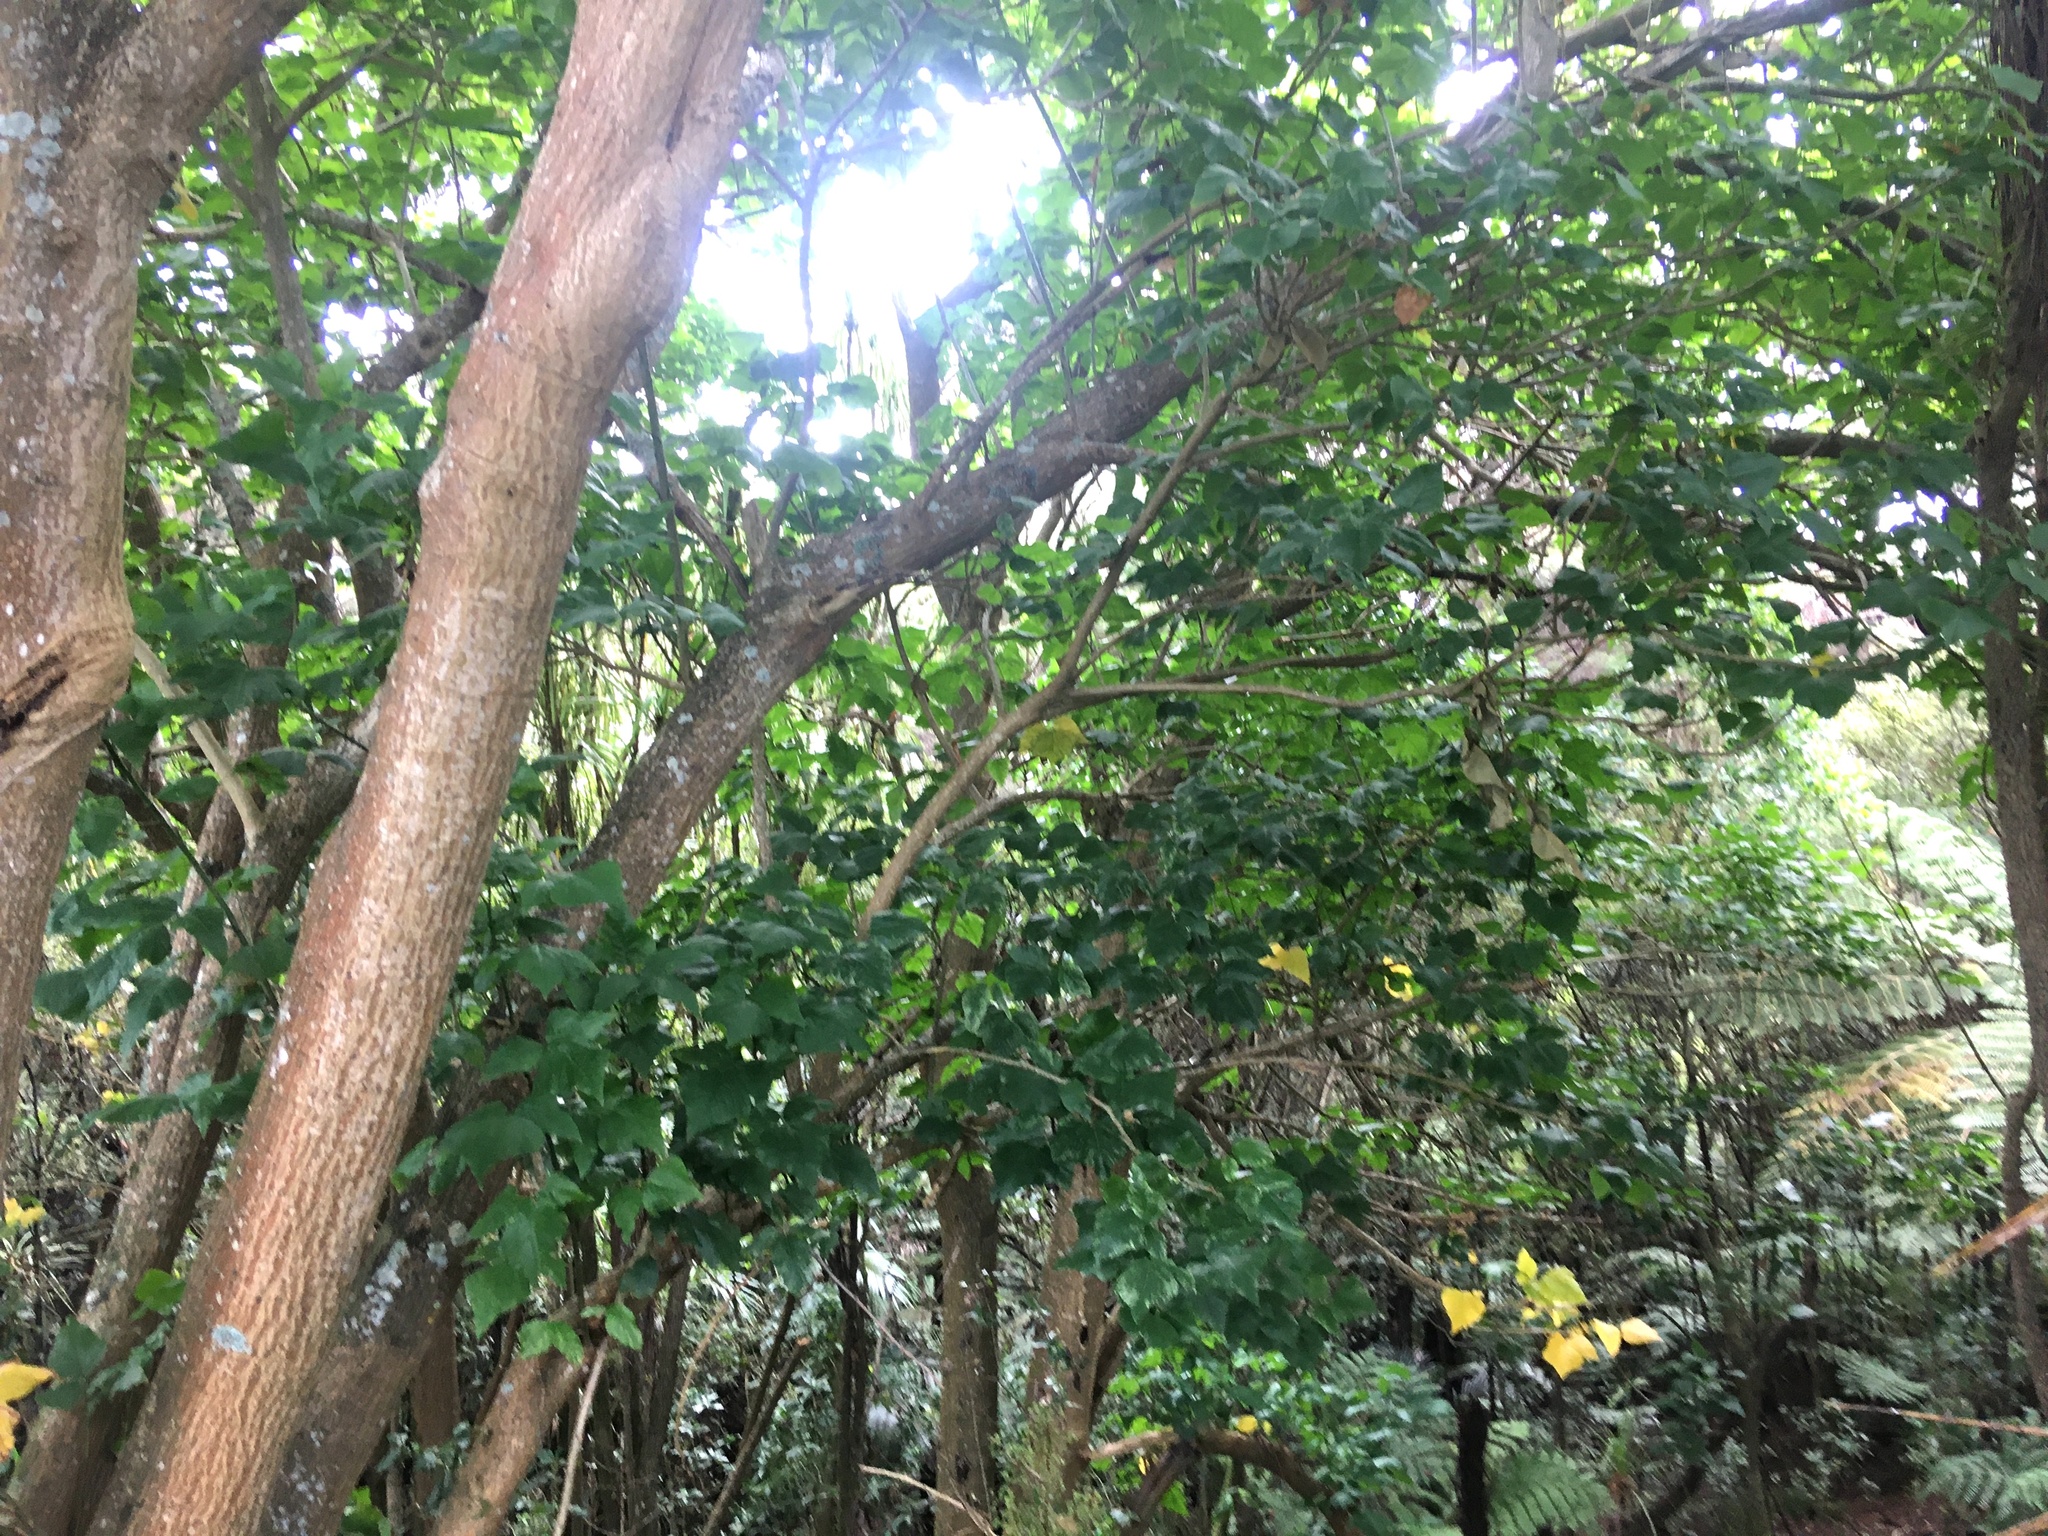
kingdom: Plantae
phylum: Tracheophyta
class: Magnoliopsida
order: Fabales
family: Fabaceae
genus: Erythrina
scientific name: Erythrina sykesii
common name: Coraltree
